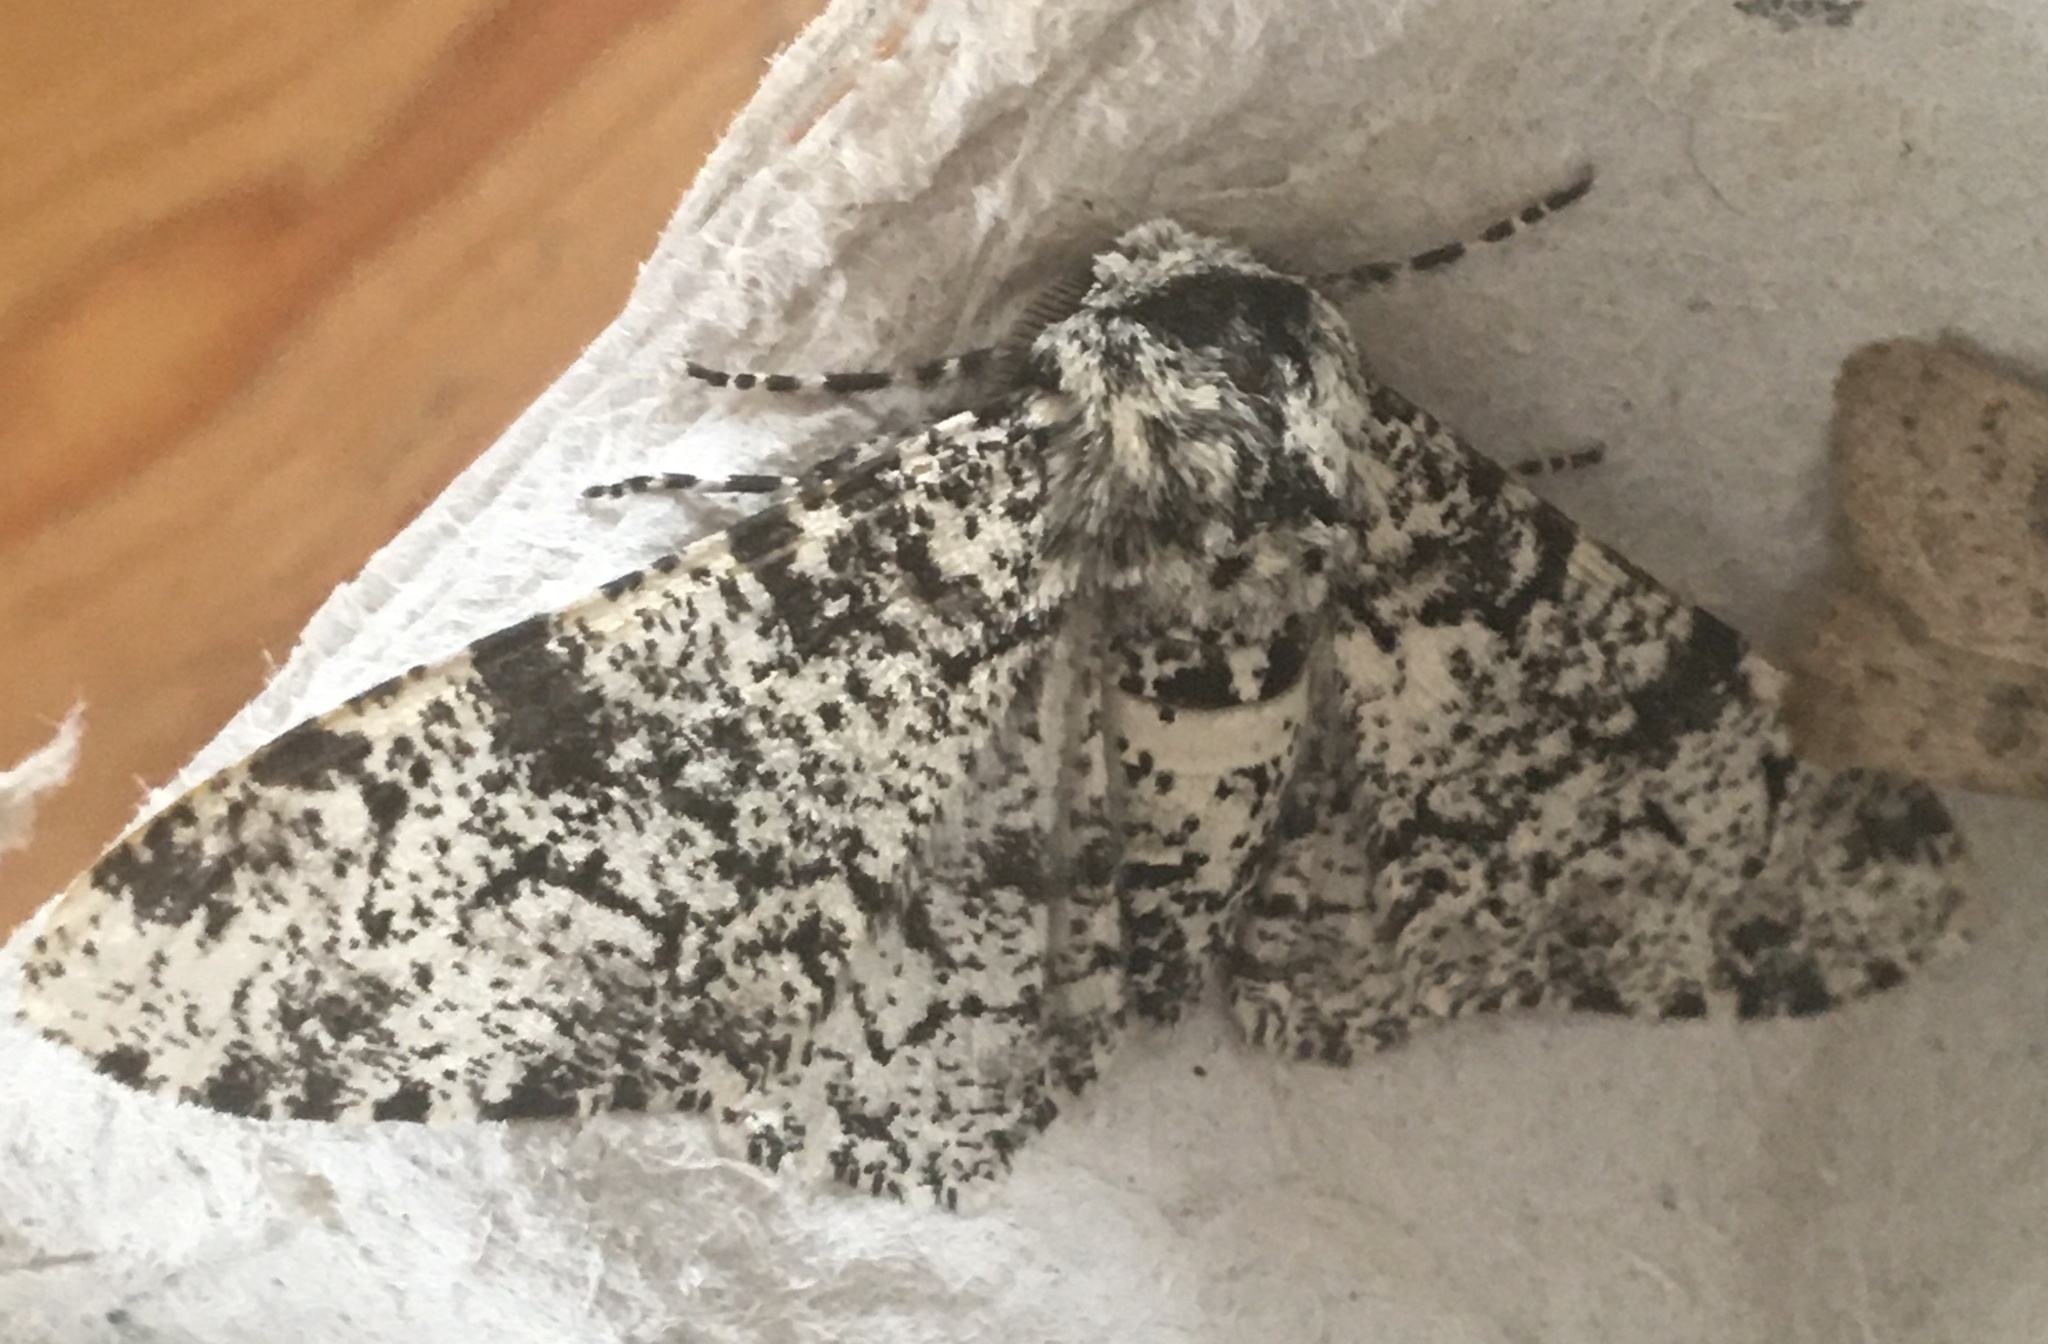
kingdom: Animalia
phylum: Arthropoda
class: Insecta
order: Lepidoptera
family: Geometridae
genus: Biston
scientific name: Biston betularia
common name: Peppered moth
